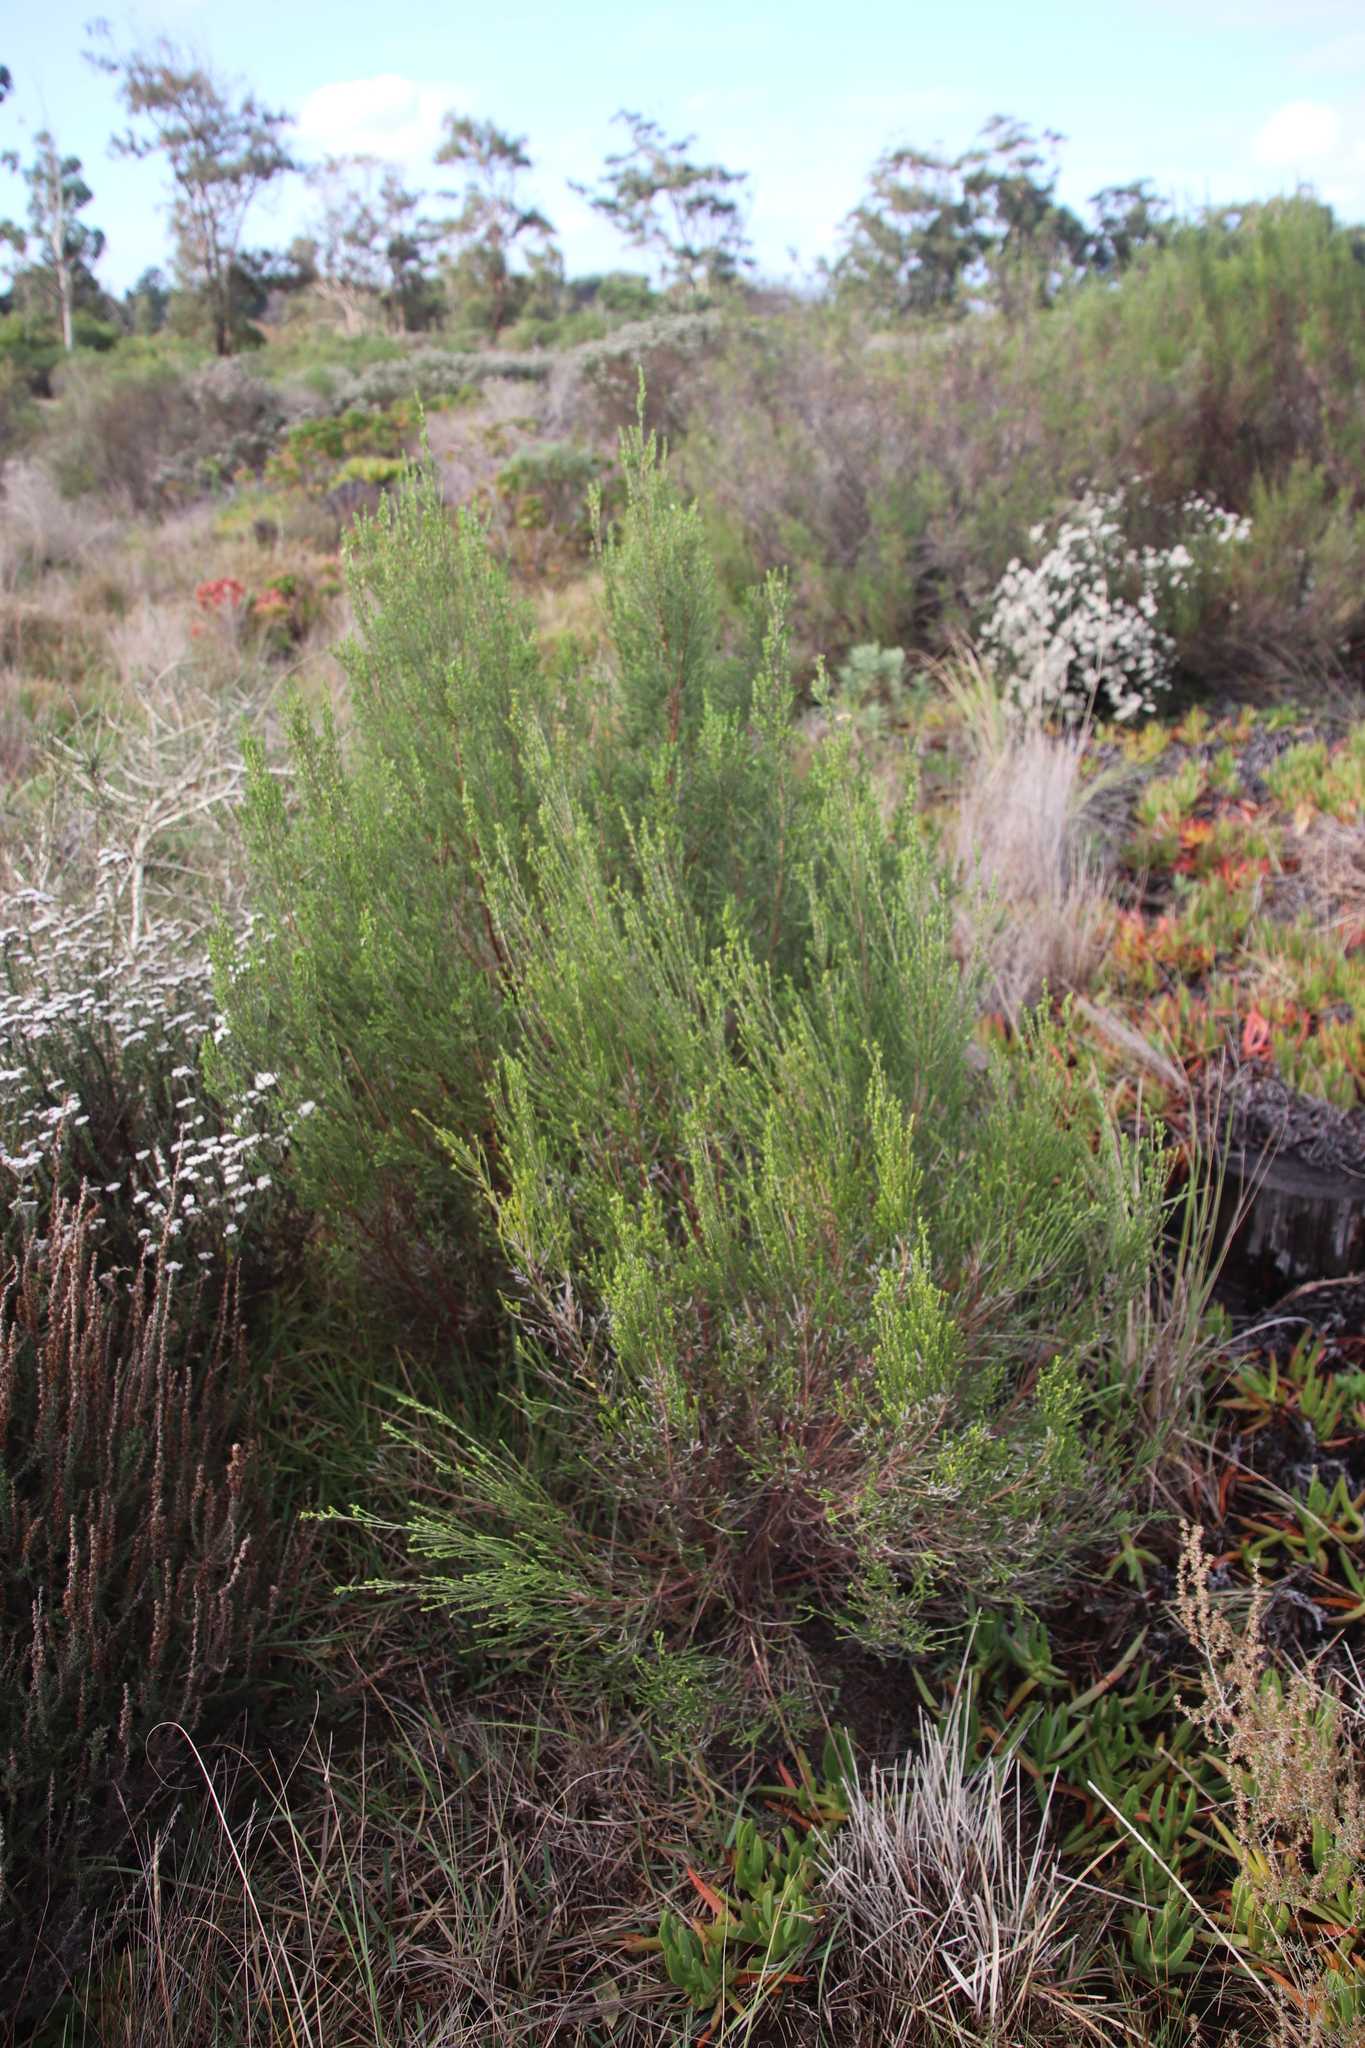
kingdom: Plantae
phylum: Tracheophyta
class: Magnoliopsida
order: Malvales
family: Thymelaeaceae
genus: Passerina
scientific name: Passerina corymbosa
